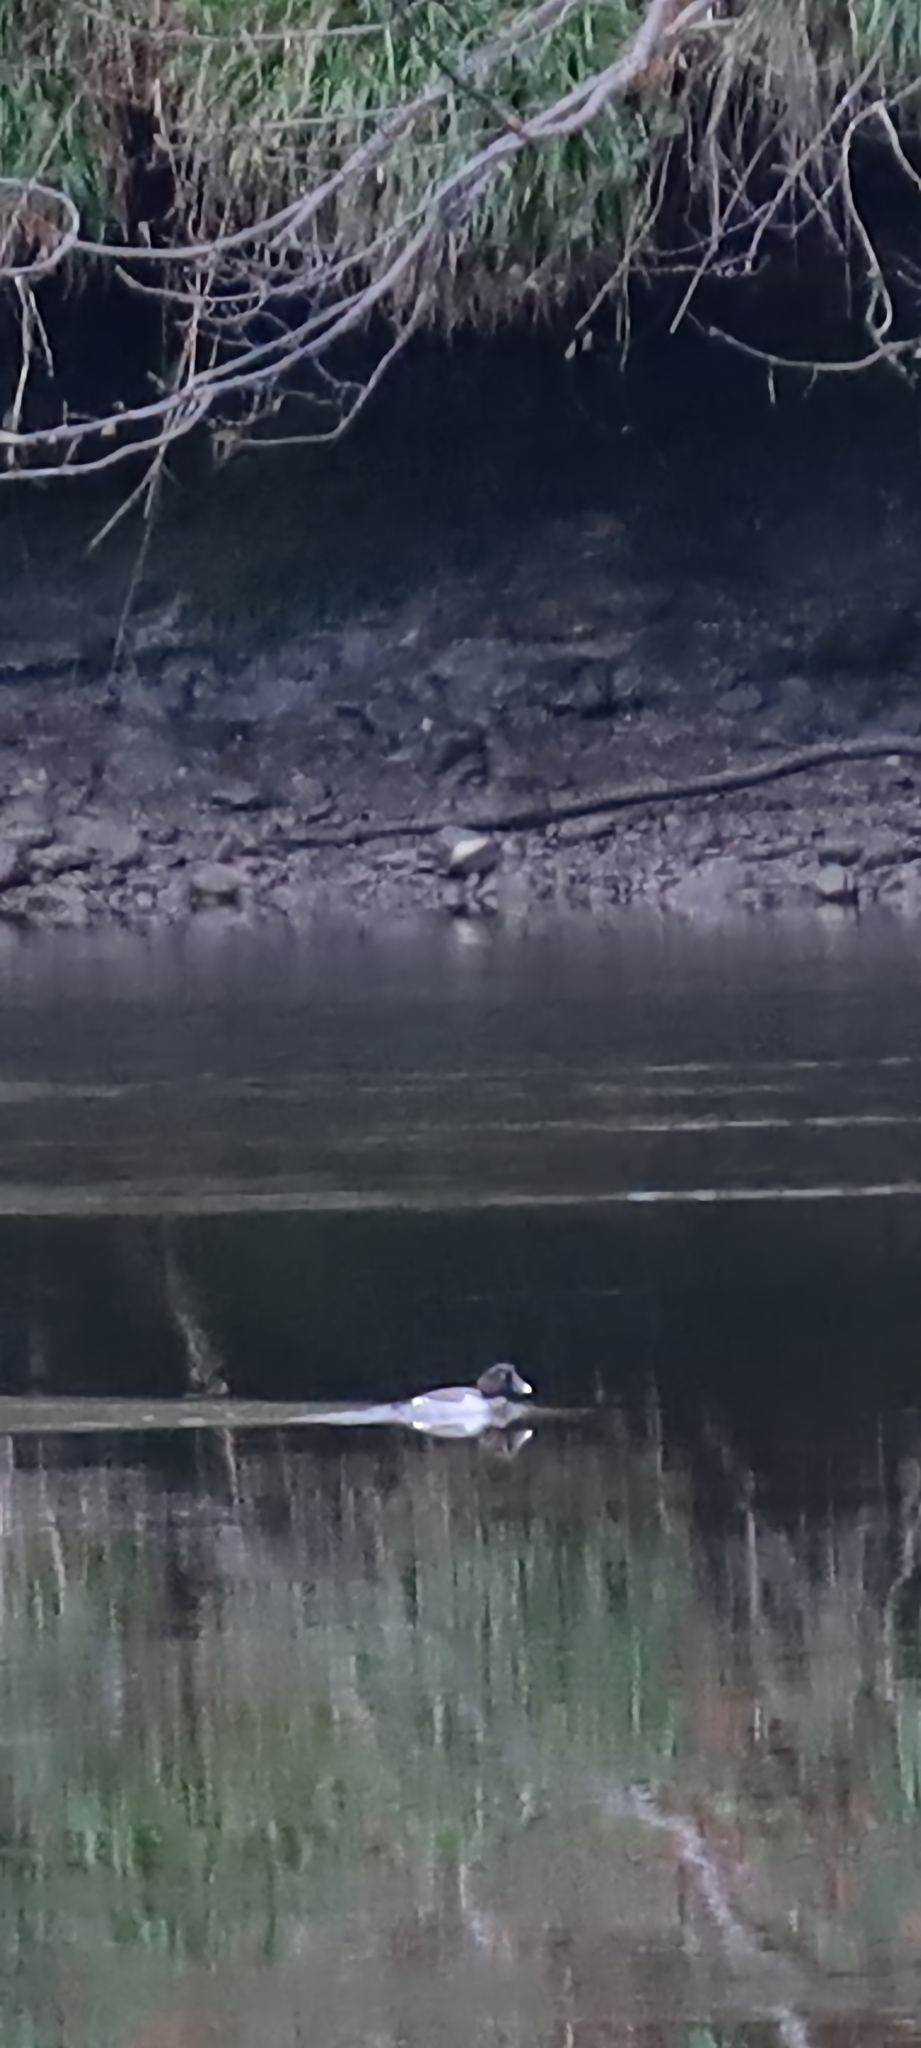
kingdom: Animalia
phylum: Chordata
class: Aves
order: Anseriformes
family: Anatidae
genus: Bucephala
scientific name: Bucephala clangula
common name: Common goldeneye
